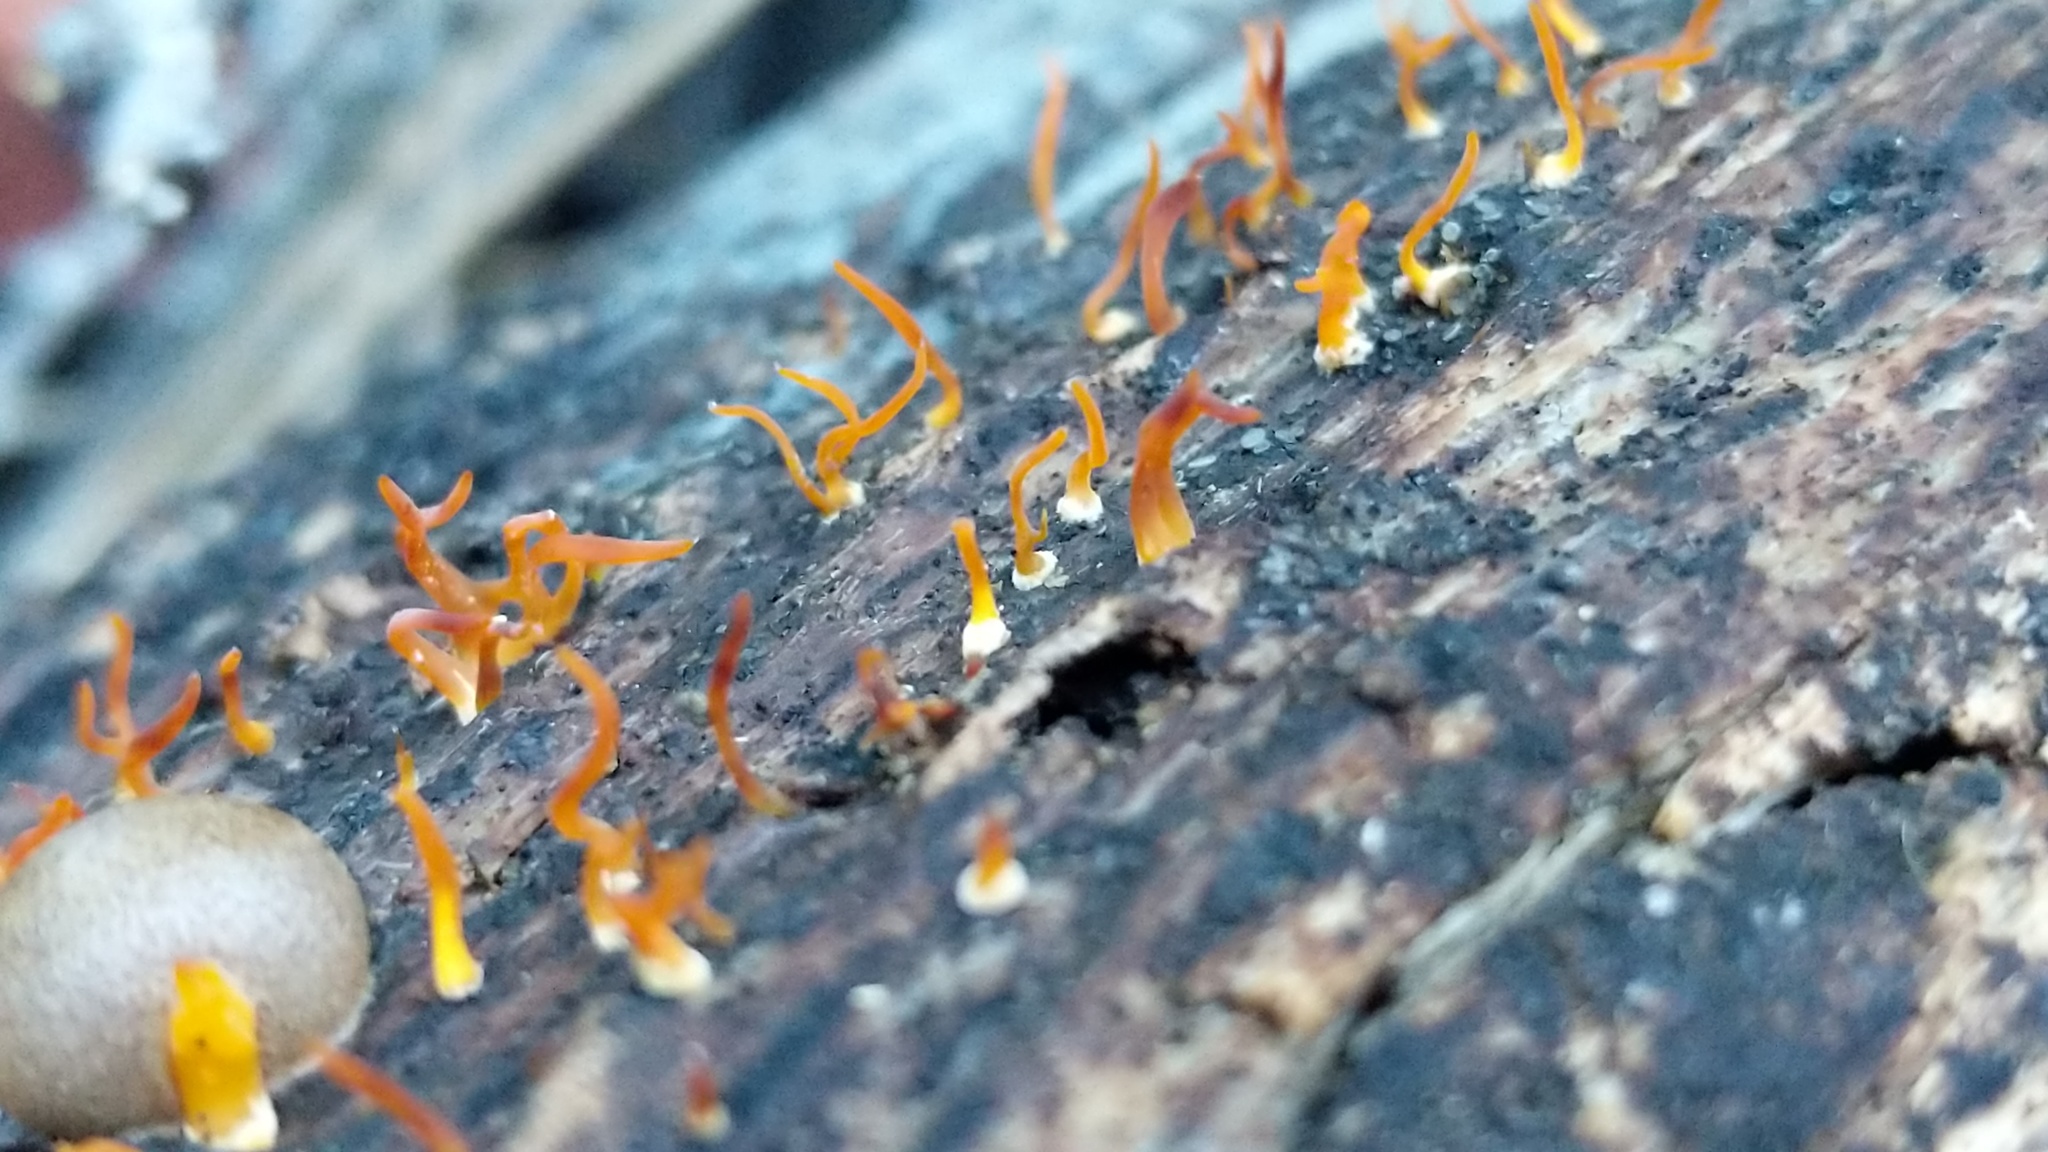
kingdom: Fungi
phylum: Basidiomycota
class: Dacrymycetes
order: Dacrymycetales
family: Dacrymycetaceae
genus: Calocera
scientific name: Calocera cornea
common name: Small stagshorn
